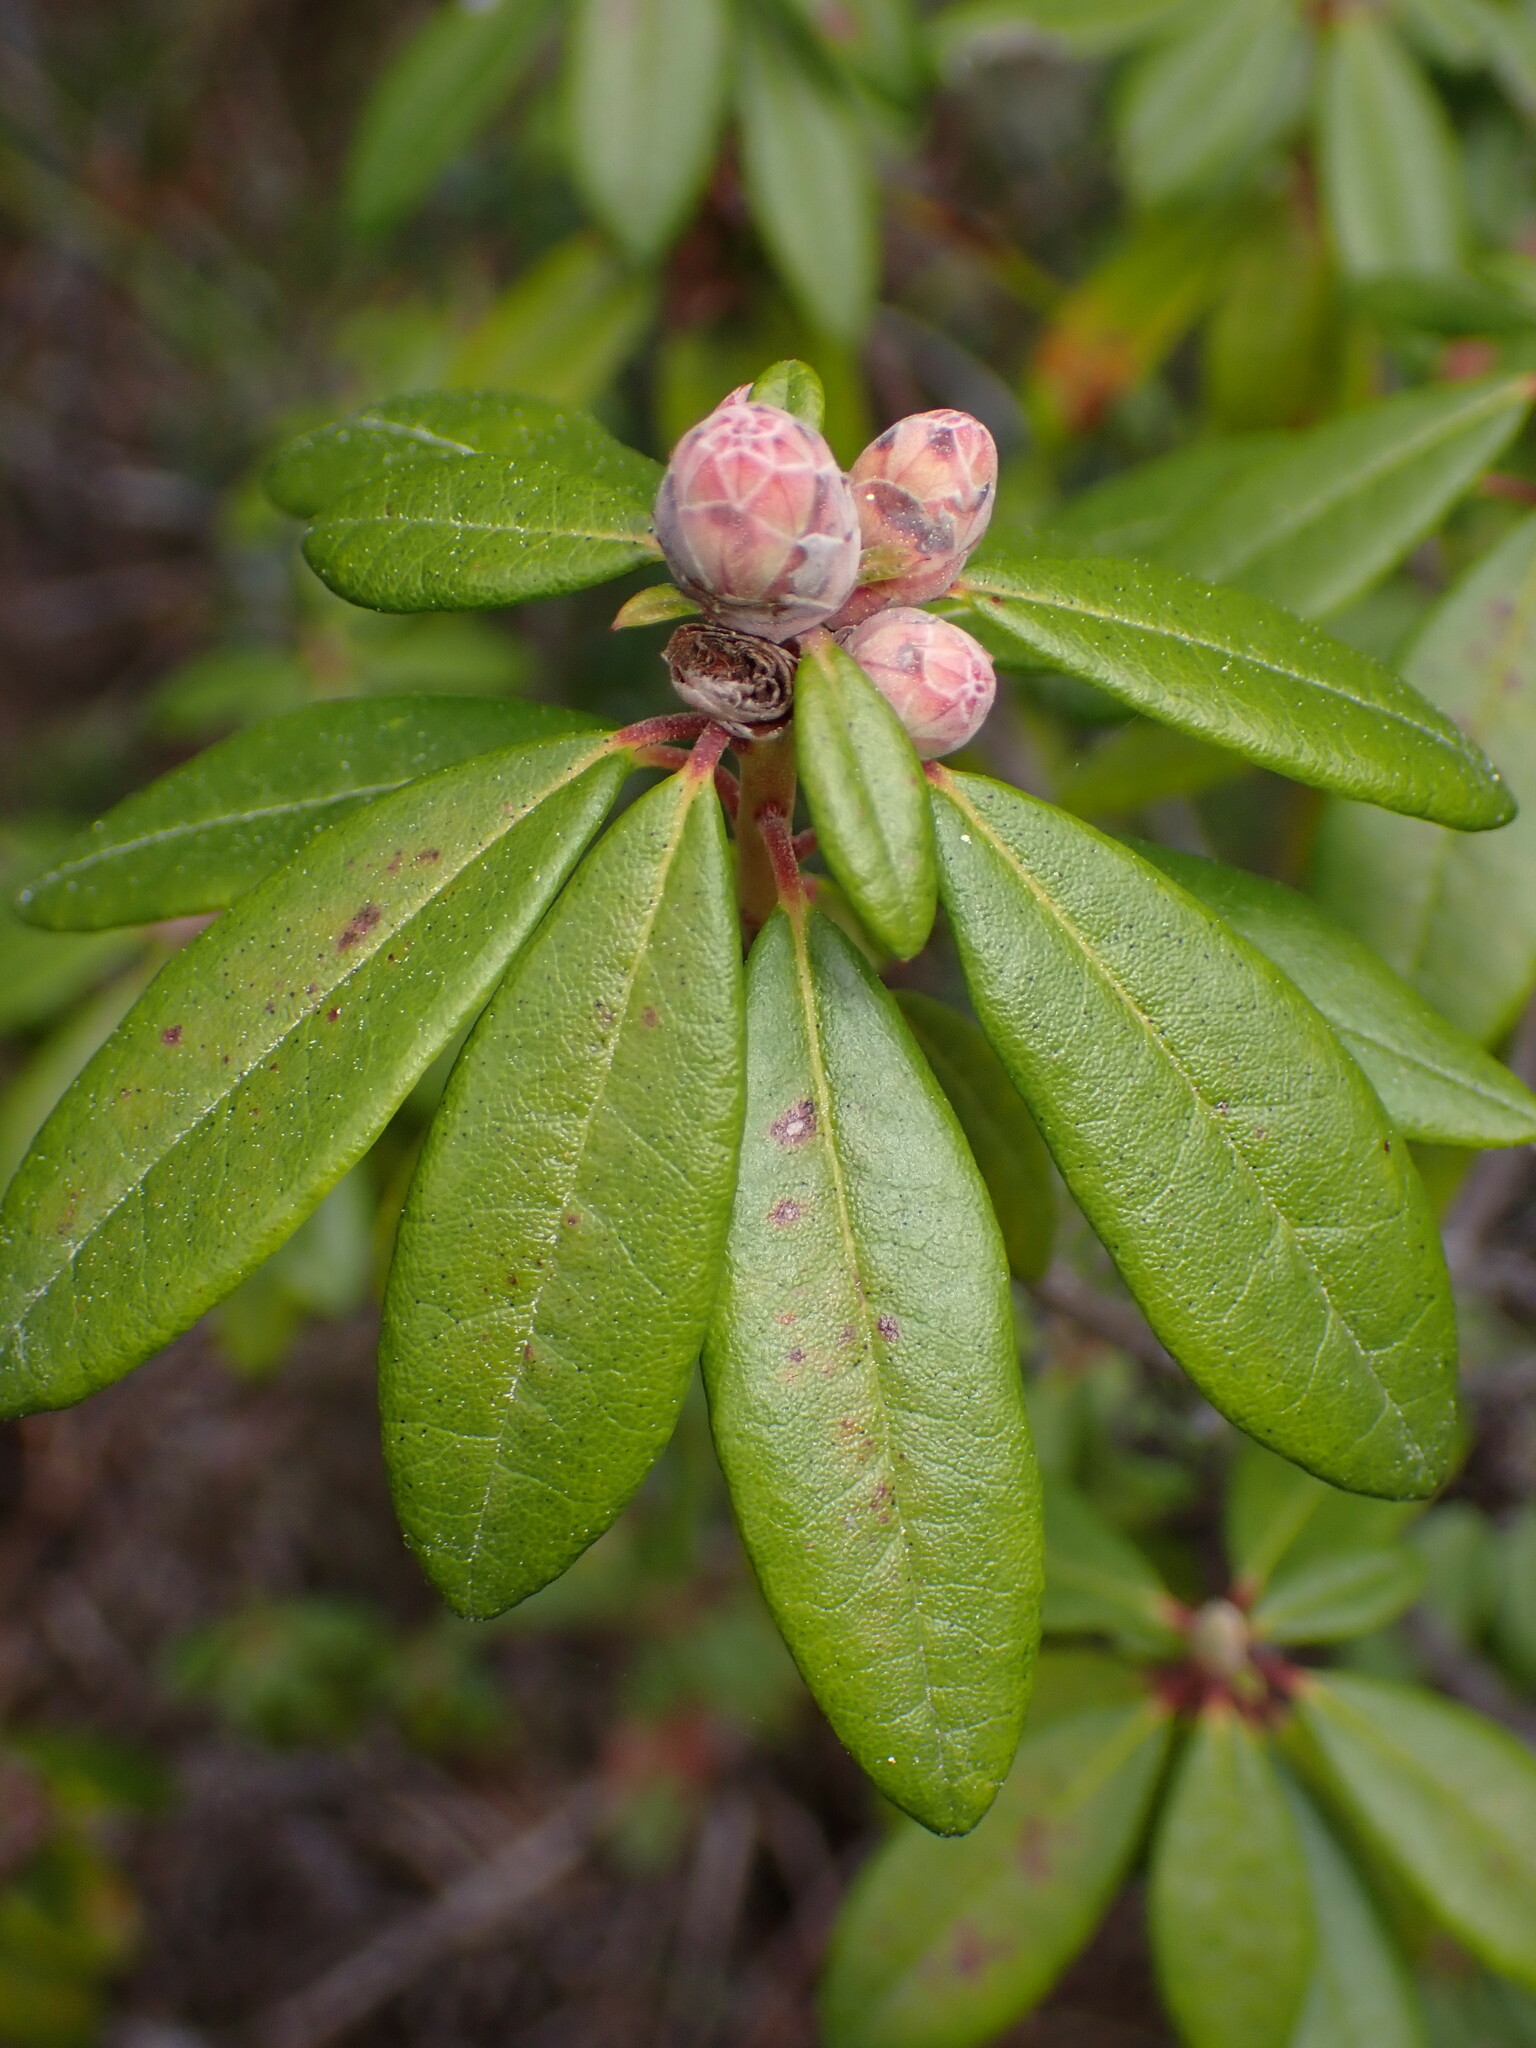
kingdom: Plantae
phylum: Tracheophyta
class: Magnoliopsida
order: Ericales
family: Ericaceae
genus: Rhododendron
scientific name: Rhododendron columbianum
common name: Western labrador tea
